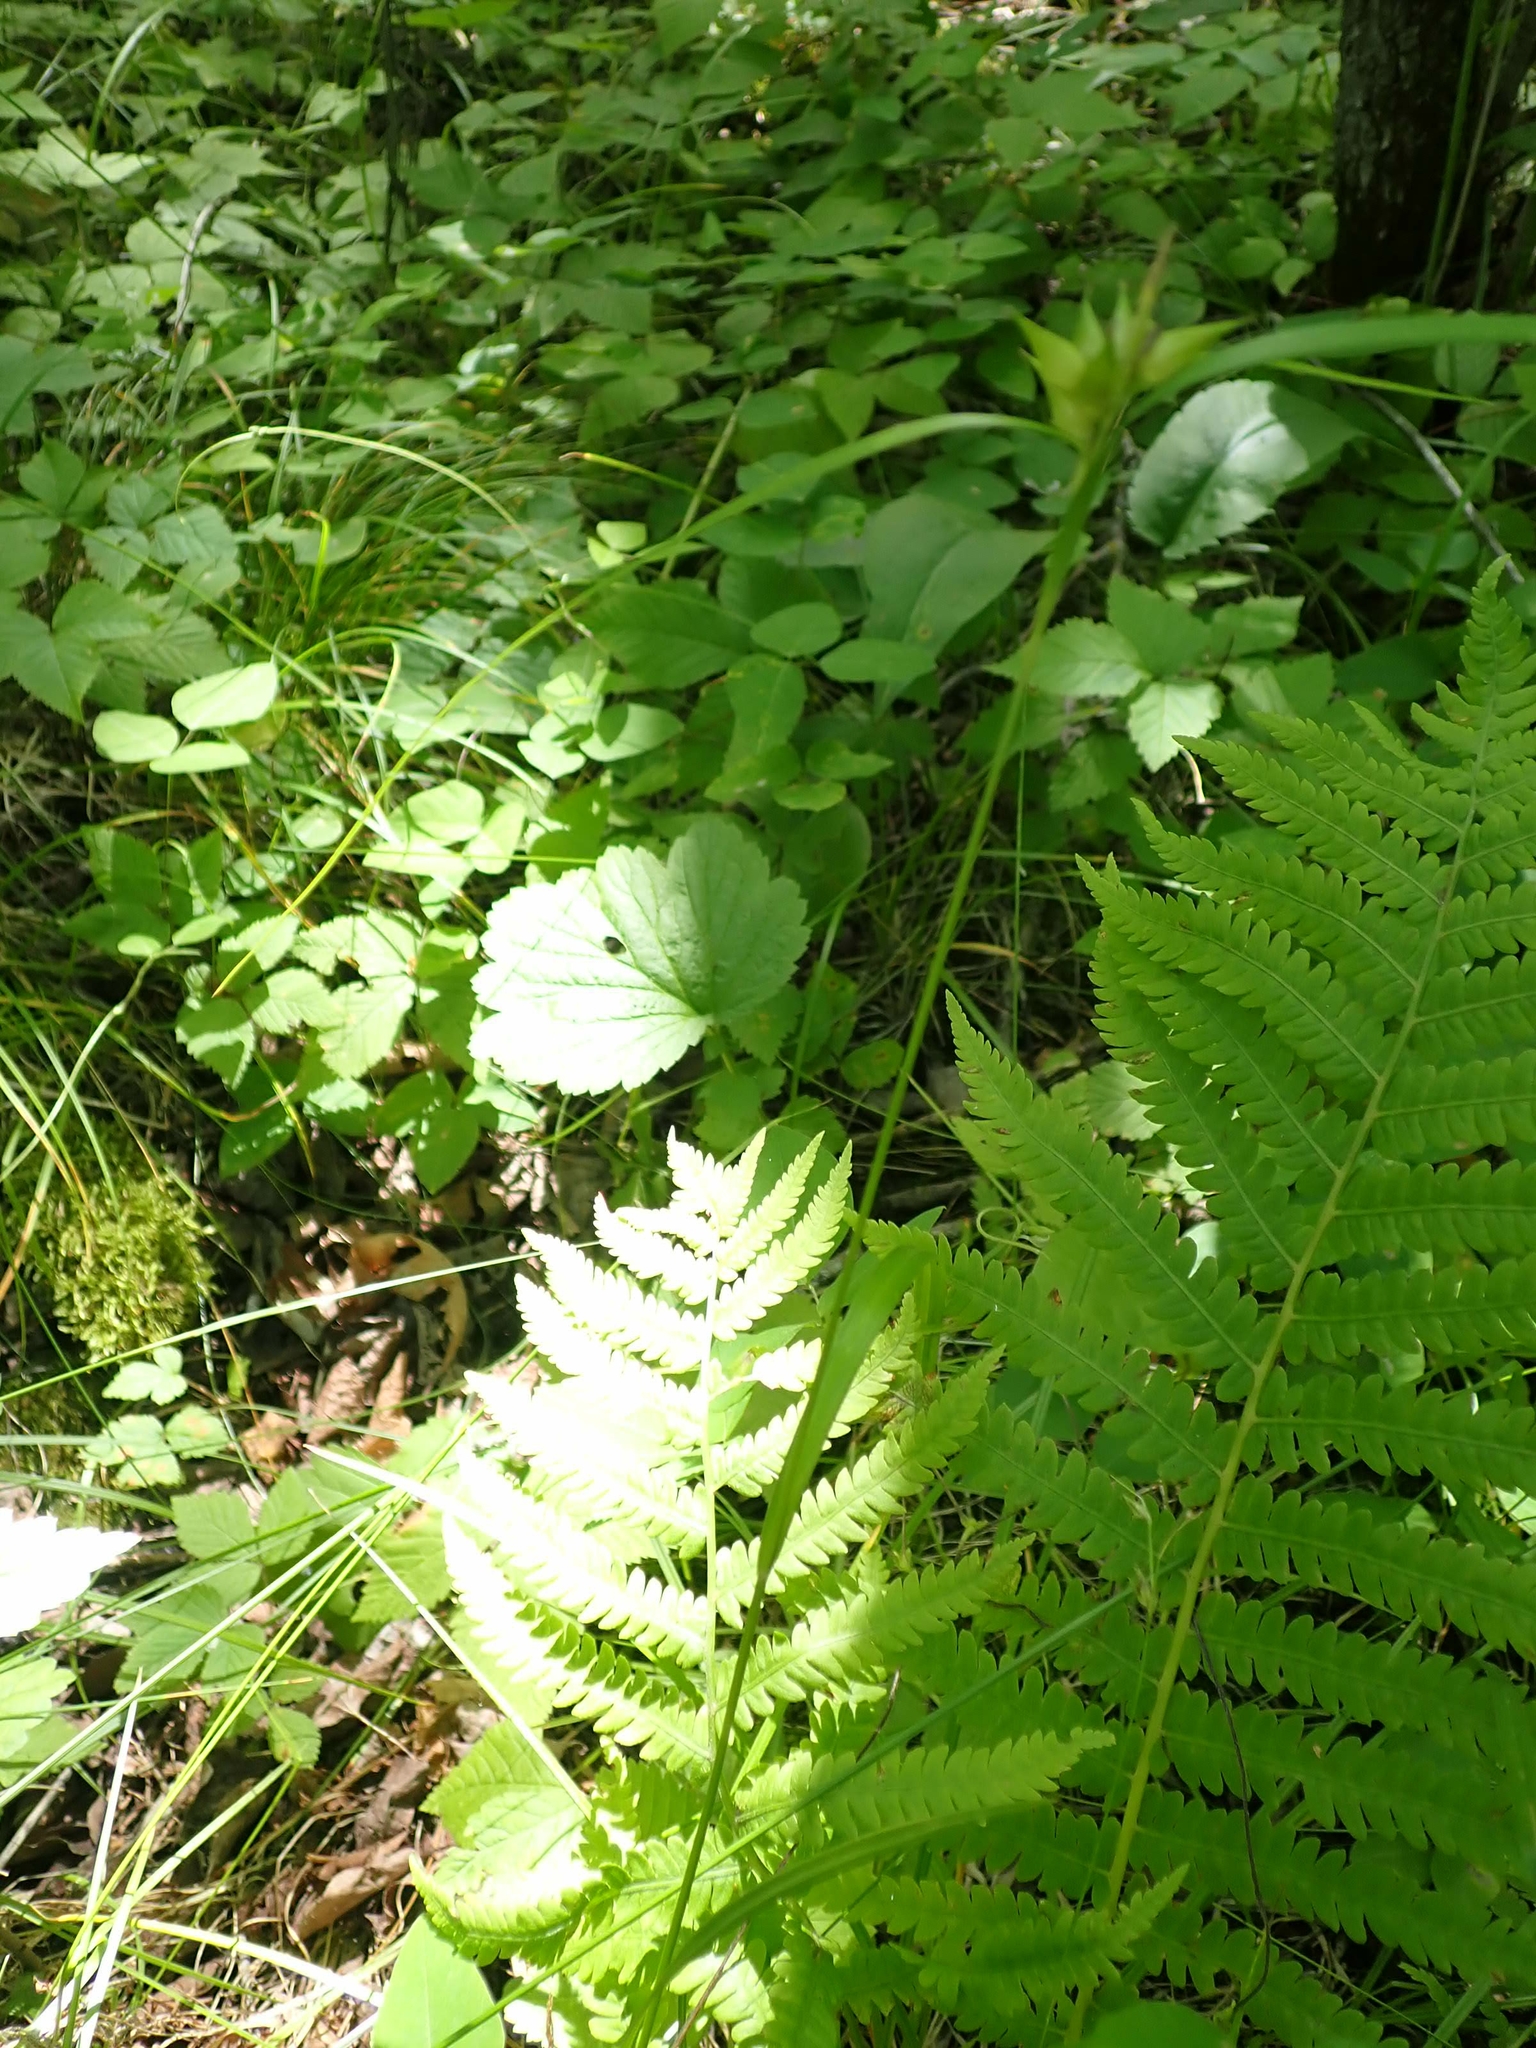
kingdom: Plantae
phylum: Tracheophyta
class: Liliopsida
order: Poales
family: Cyperaceae
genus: Carex
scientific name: Carex intumescens
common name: Greater bladder sedge
